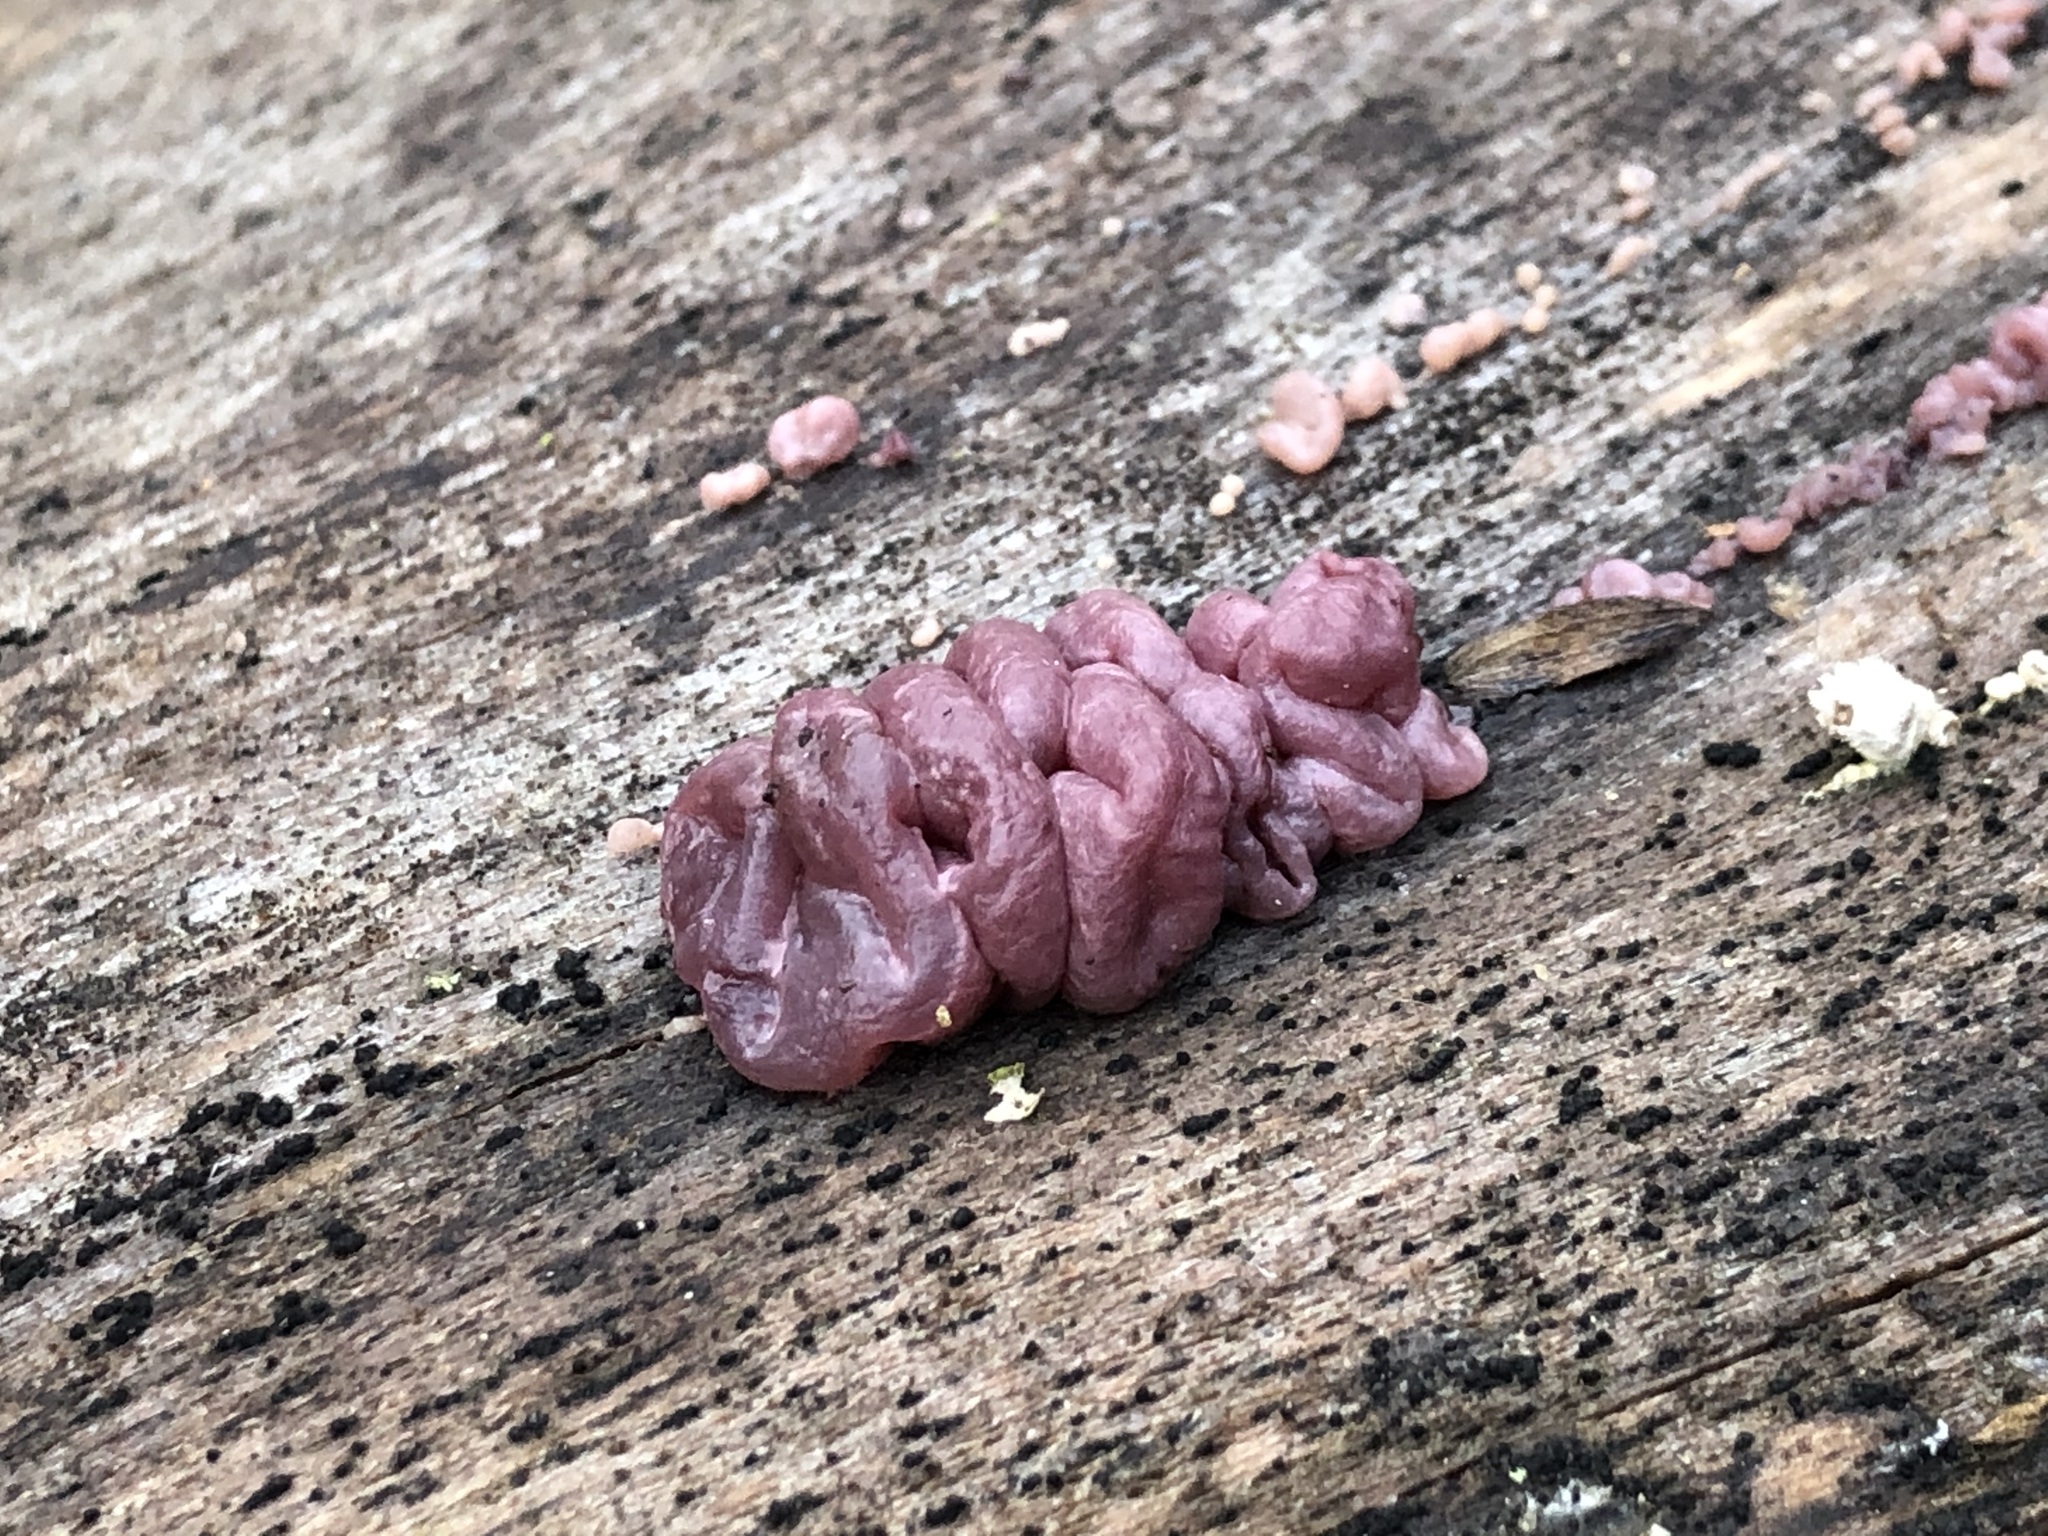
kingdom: Fungi
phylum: Ascomycota
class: Leotiomycetes
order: Helotiales
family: Gelatinodiscaceae
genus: Ascocoryne
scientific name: Ascocoryne sarcoides
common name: Purple jellydisc
